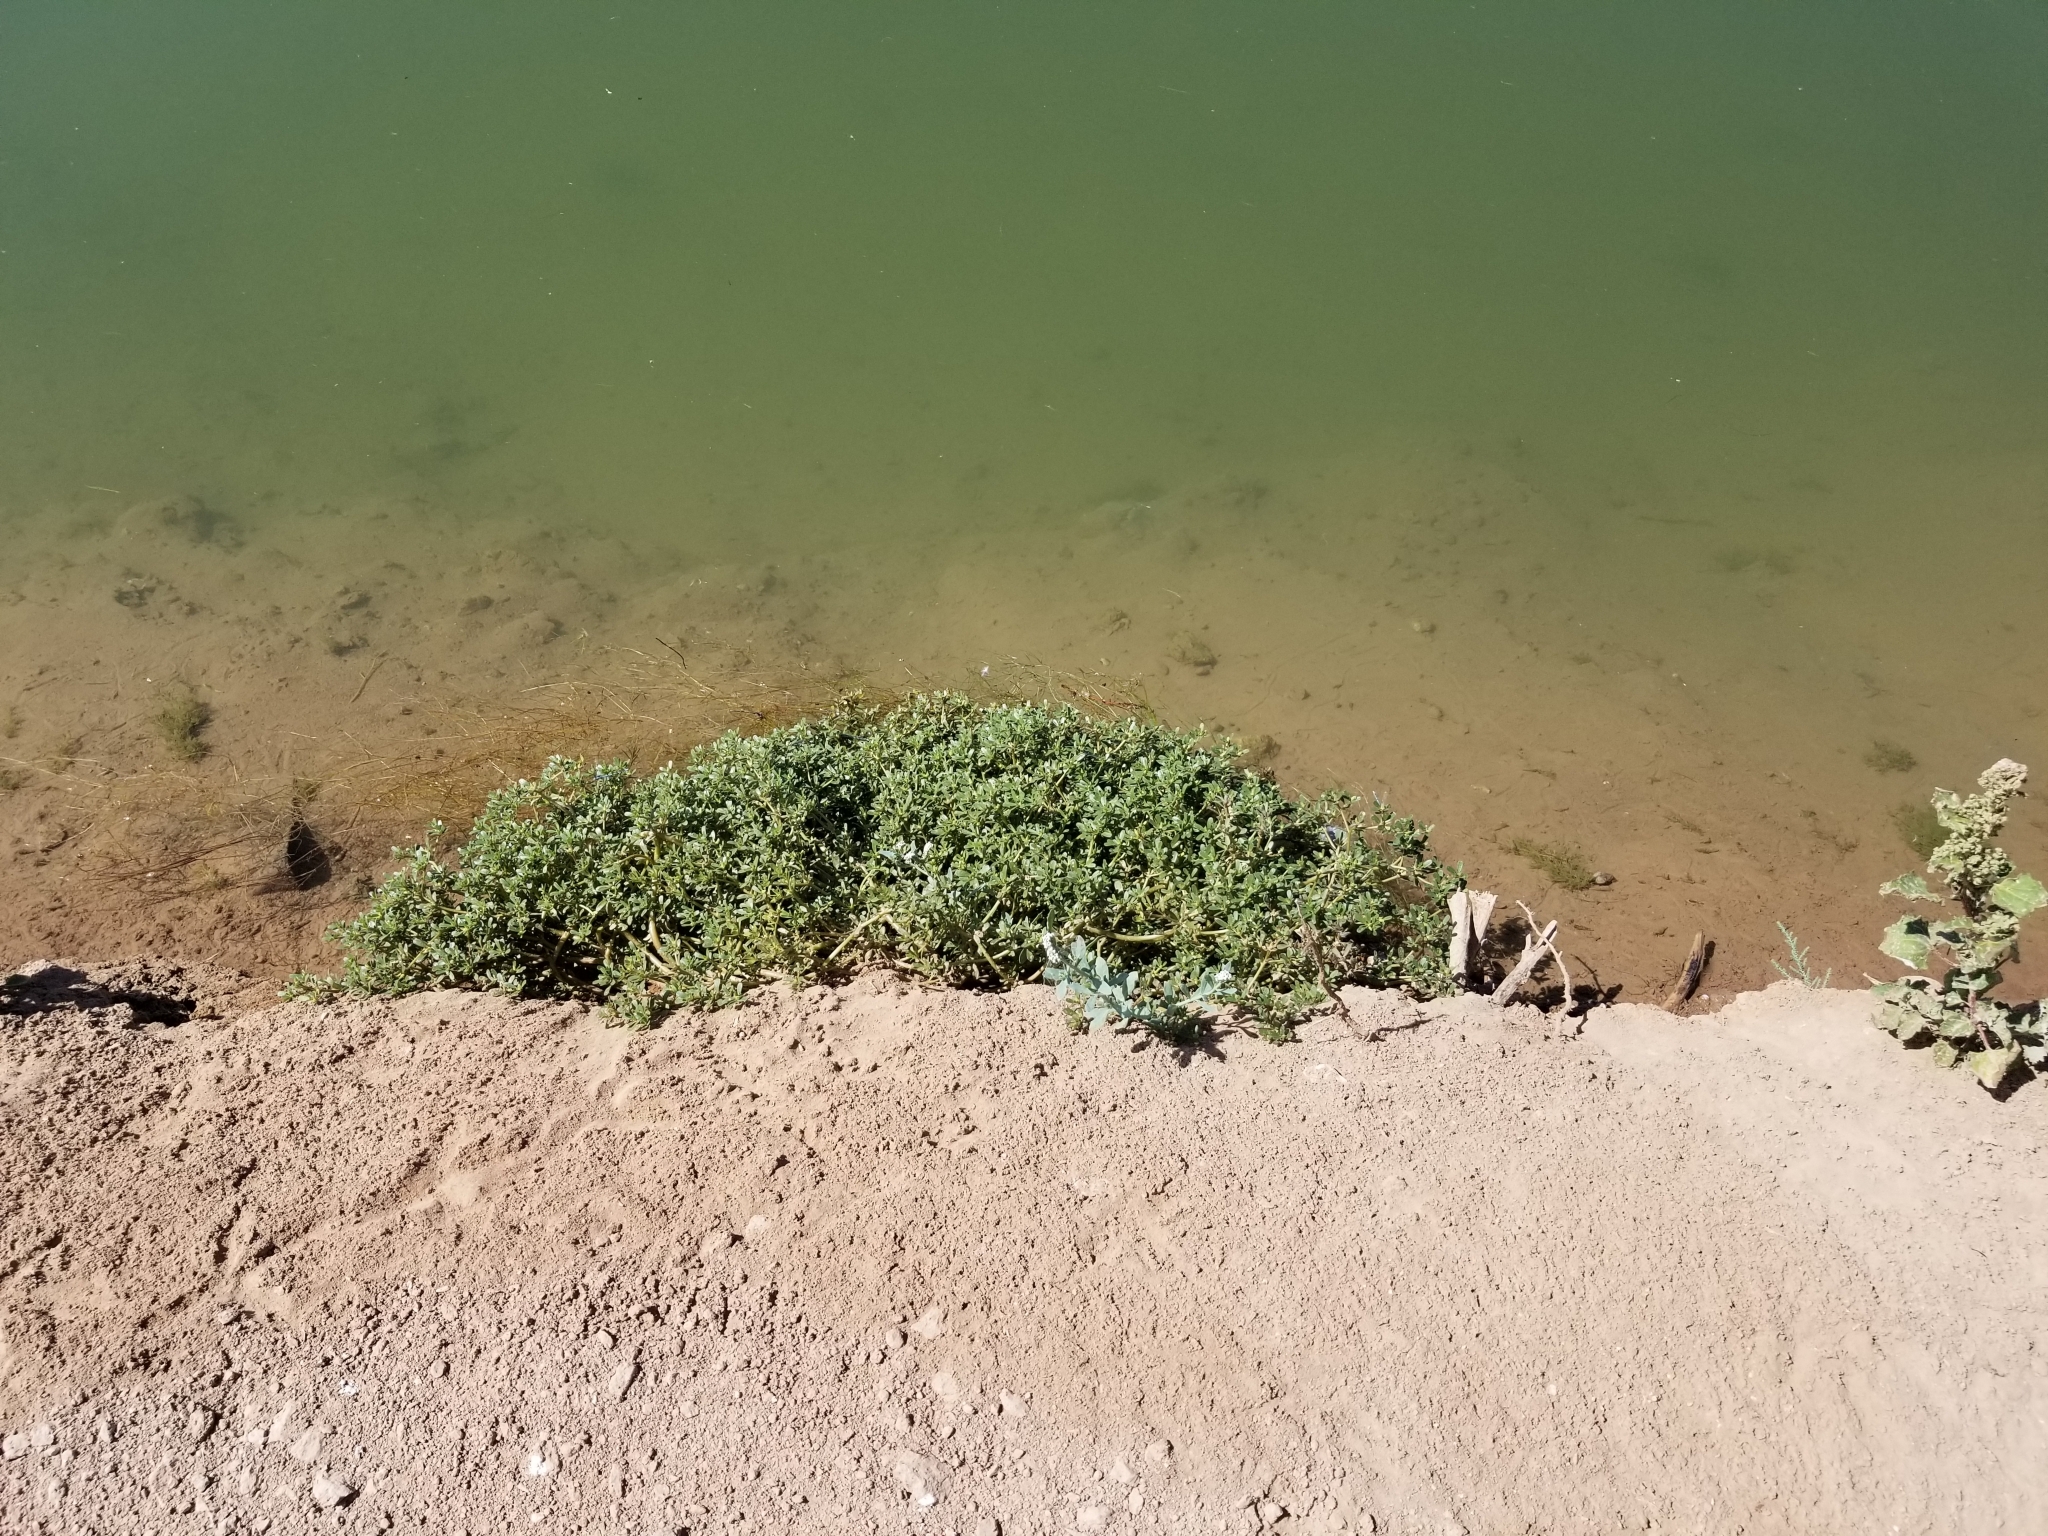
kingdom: Plantae
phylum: Tracheophyta
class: Magnoliopsida
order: Caryophyllales
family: Portulacaceae
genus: Portulaca
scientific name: Portulaca oleracea
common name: Common purslane
